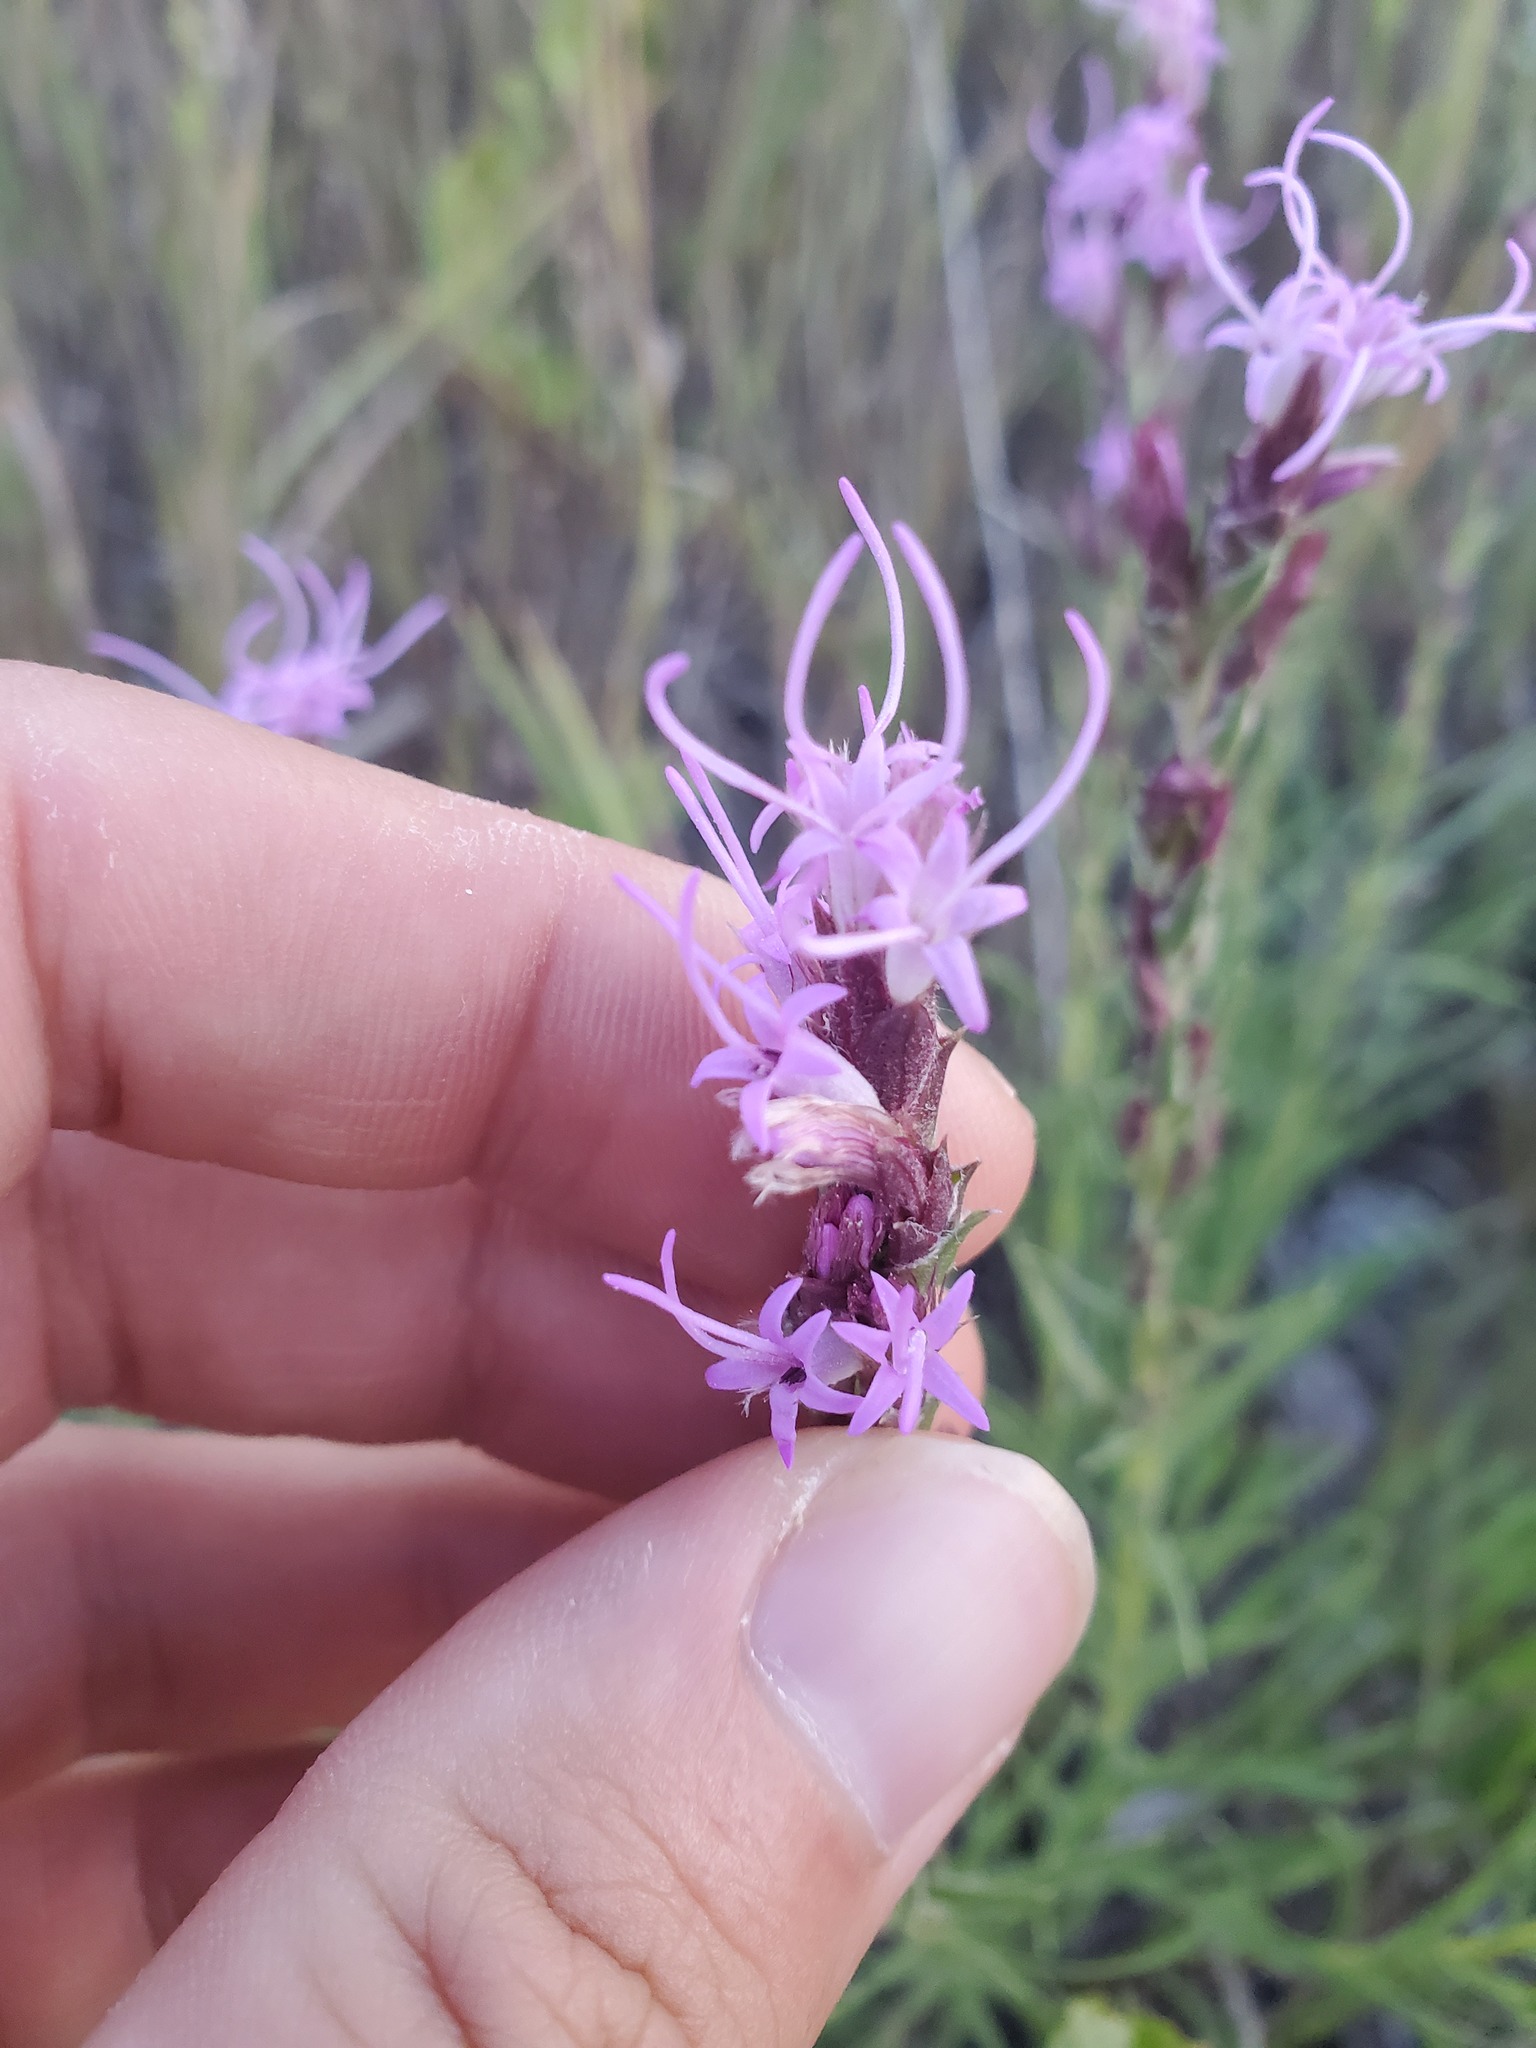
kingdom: Plantae
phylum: Tracheophyta
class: Magnoliopsida
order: Asterales
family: Asteraceae
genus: Liatris
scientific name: Liatris punctata
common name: Dotted gayfeather
